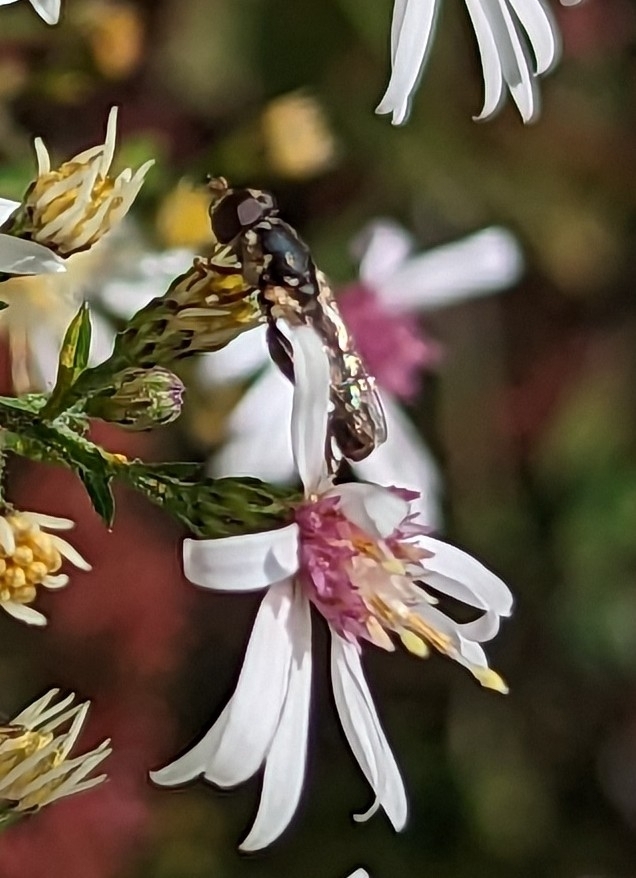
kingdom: Animalia
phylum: Arthropoda
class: Insecta
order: Diptera
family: Syrphidae
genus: Syritta
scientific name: Syritta pipiens
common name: Hover fly
